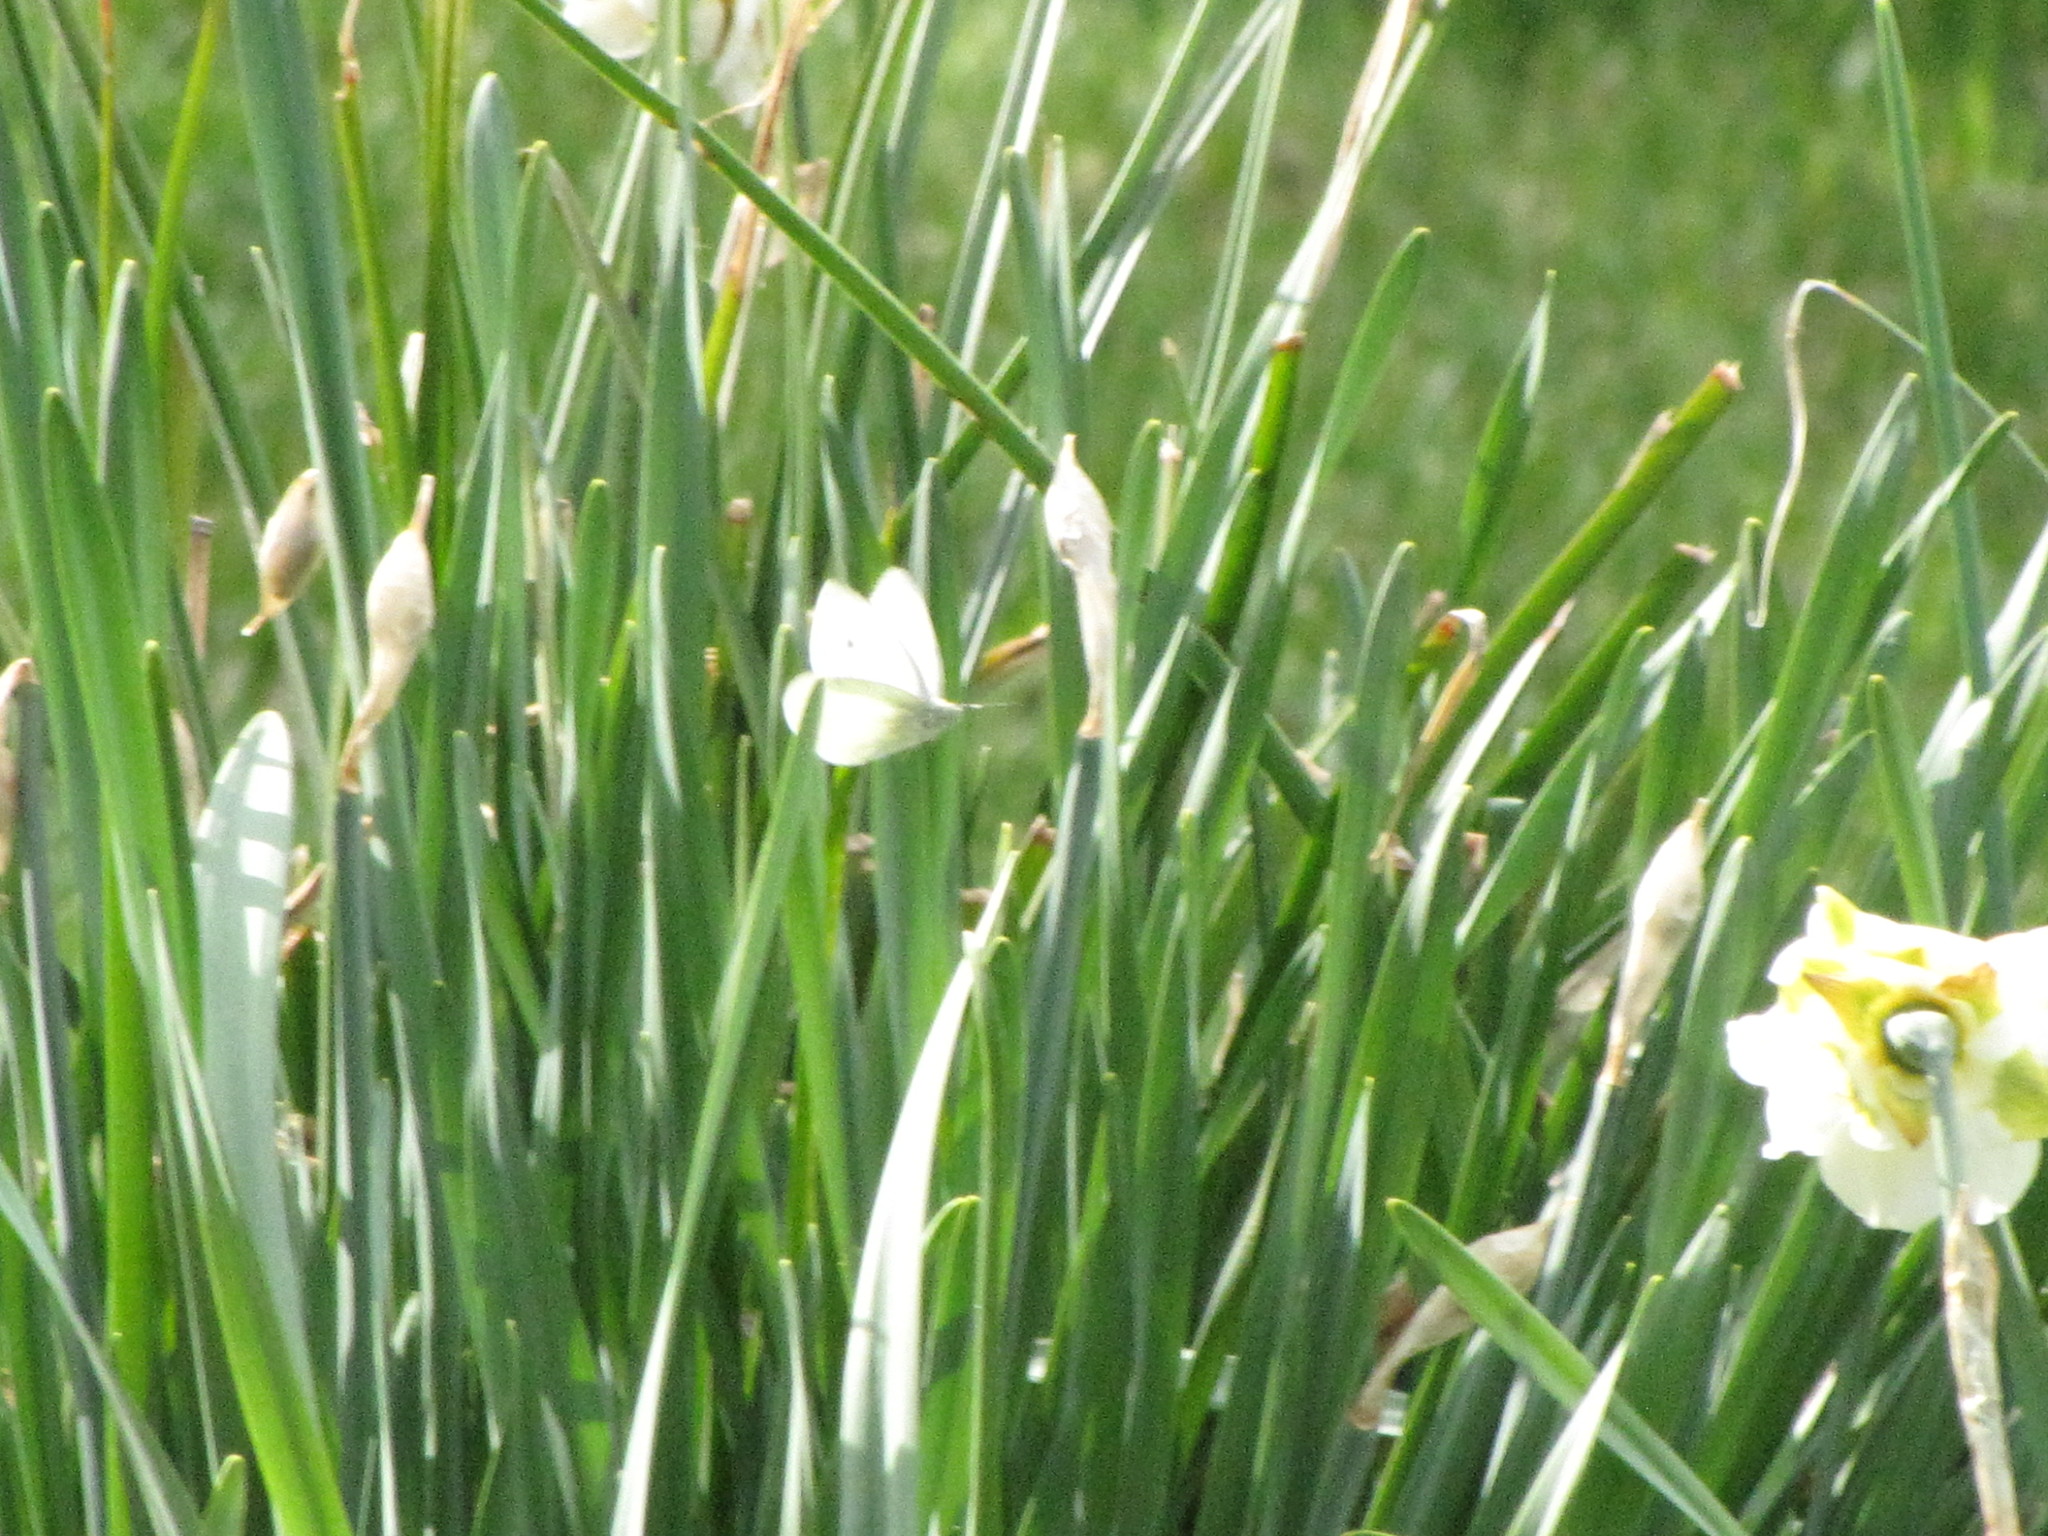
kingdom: Animalia
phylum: Arthropoda
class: Insecta
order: Lepidoptera
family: Pieridae
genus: Pieris
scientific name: Pieris rapae
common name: Small white
